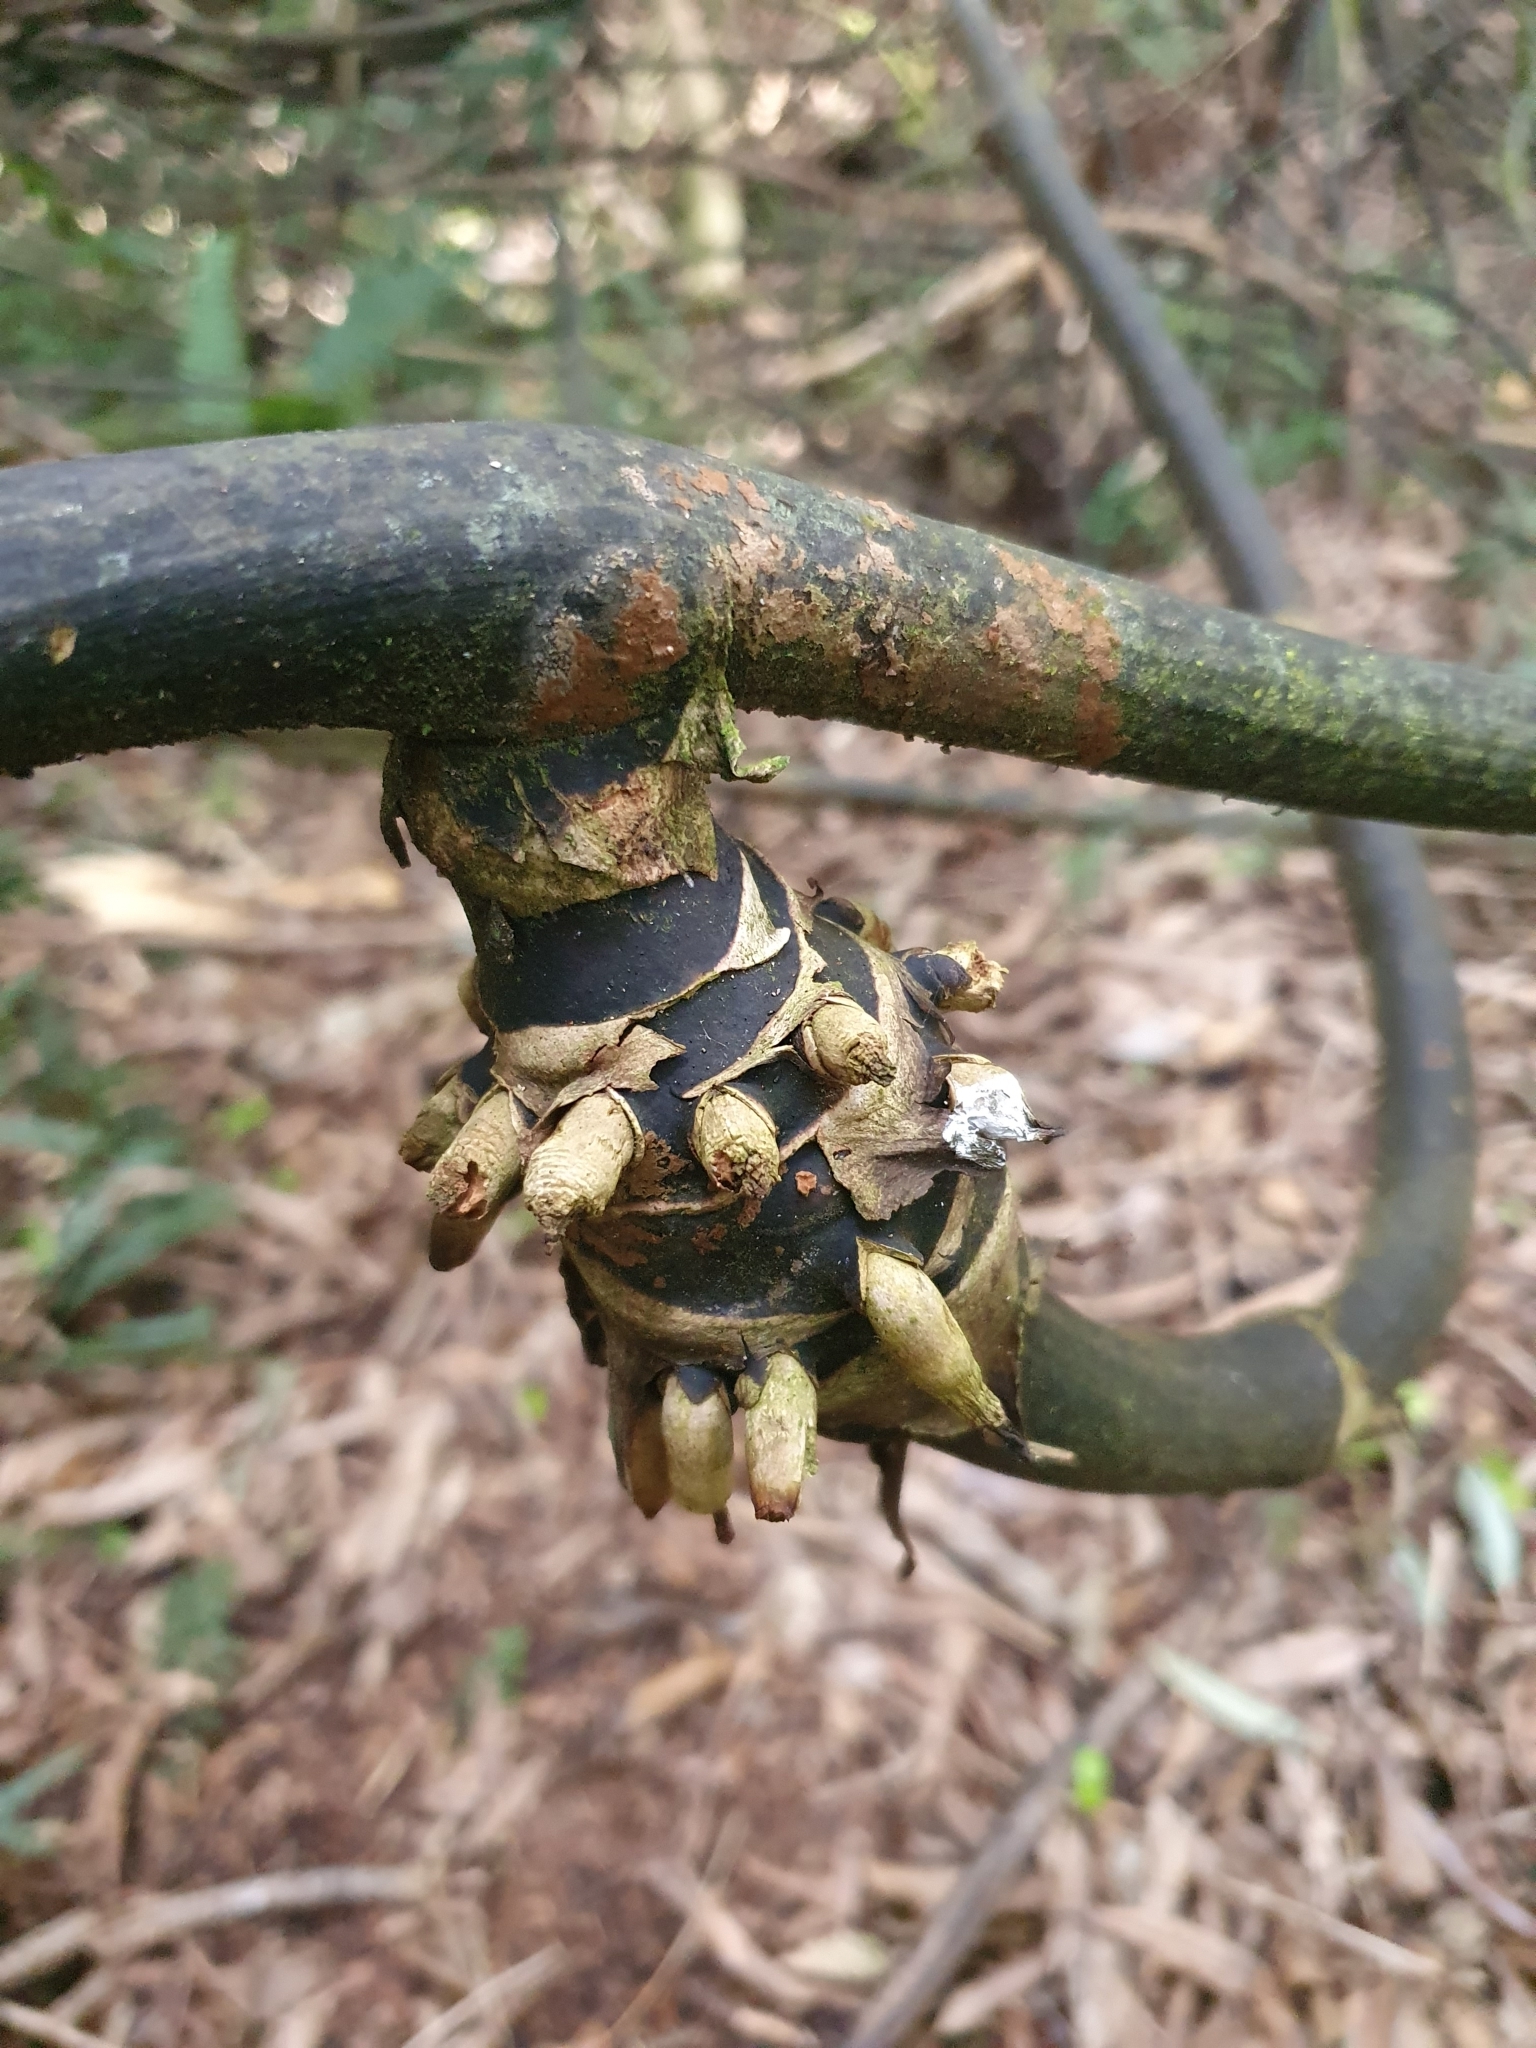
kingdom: Plantae
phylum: Tracheophyta
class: Liliopsida
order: Liliales
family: Ripogonaceae
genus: Ripogonum
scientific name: Ripogonum scandens
